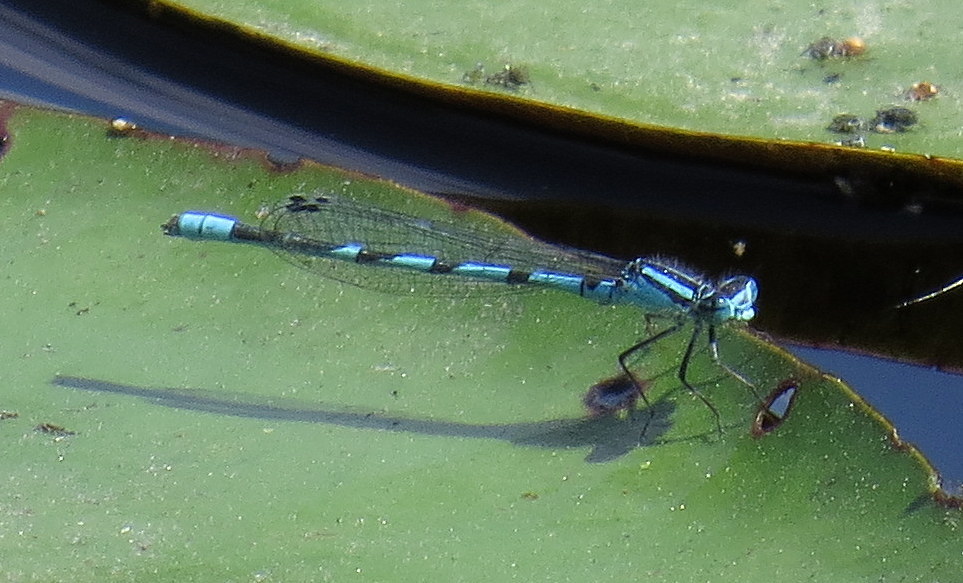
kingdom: Animalia
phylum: Arthropoda
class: Insecta
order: Odonata
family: Coenagrionidae
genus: Enallagma
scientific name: Enallagma ebrium
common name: Marsh bluet
